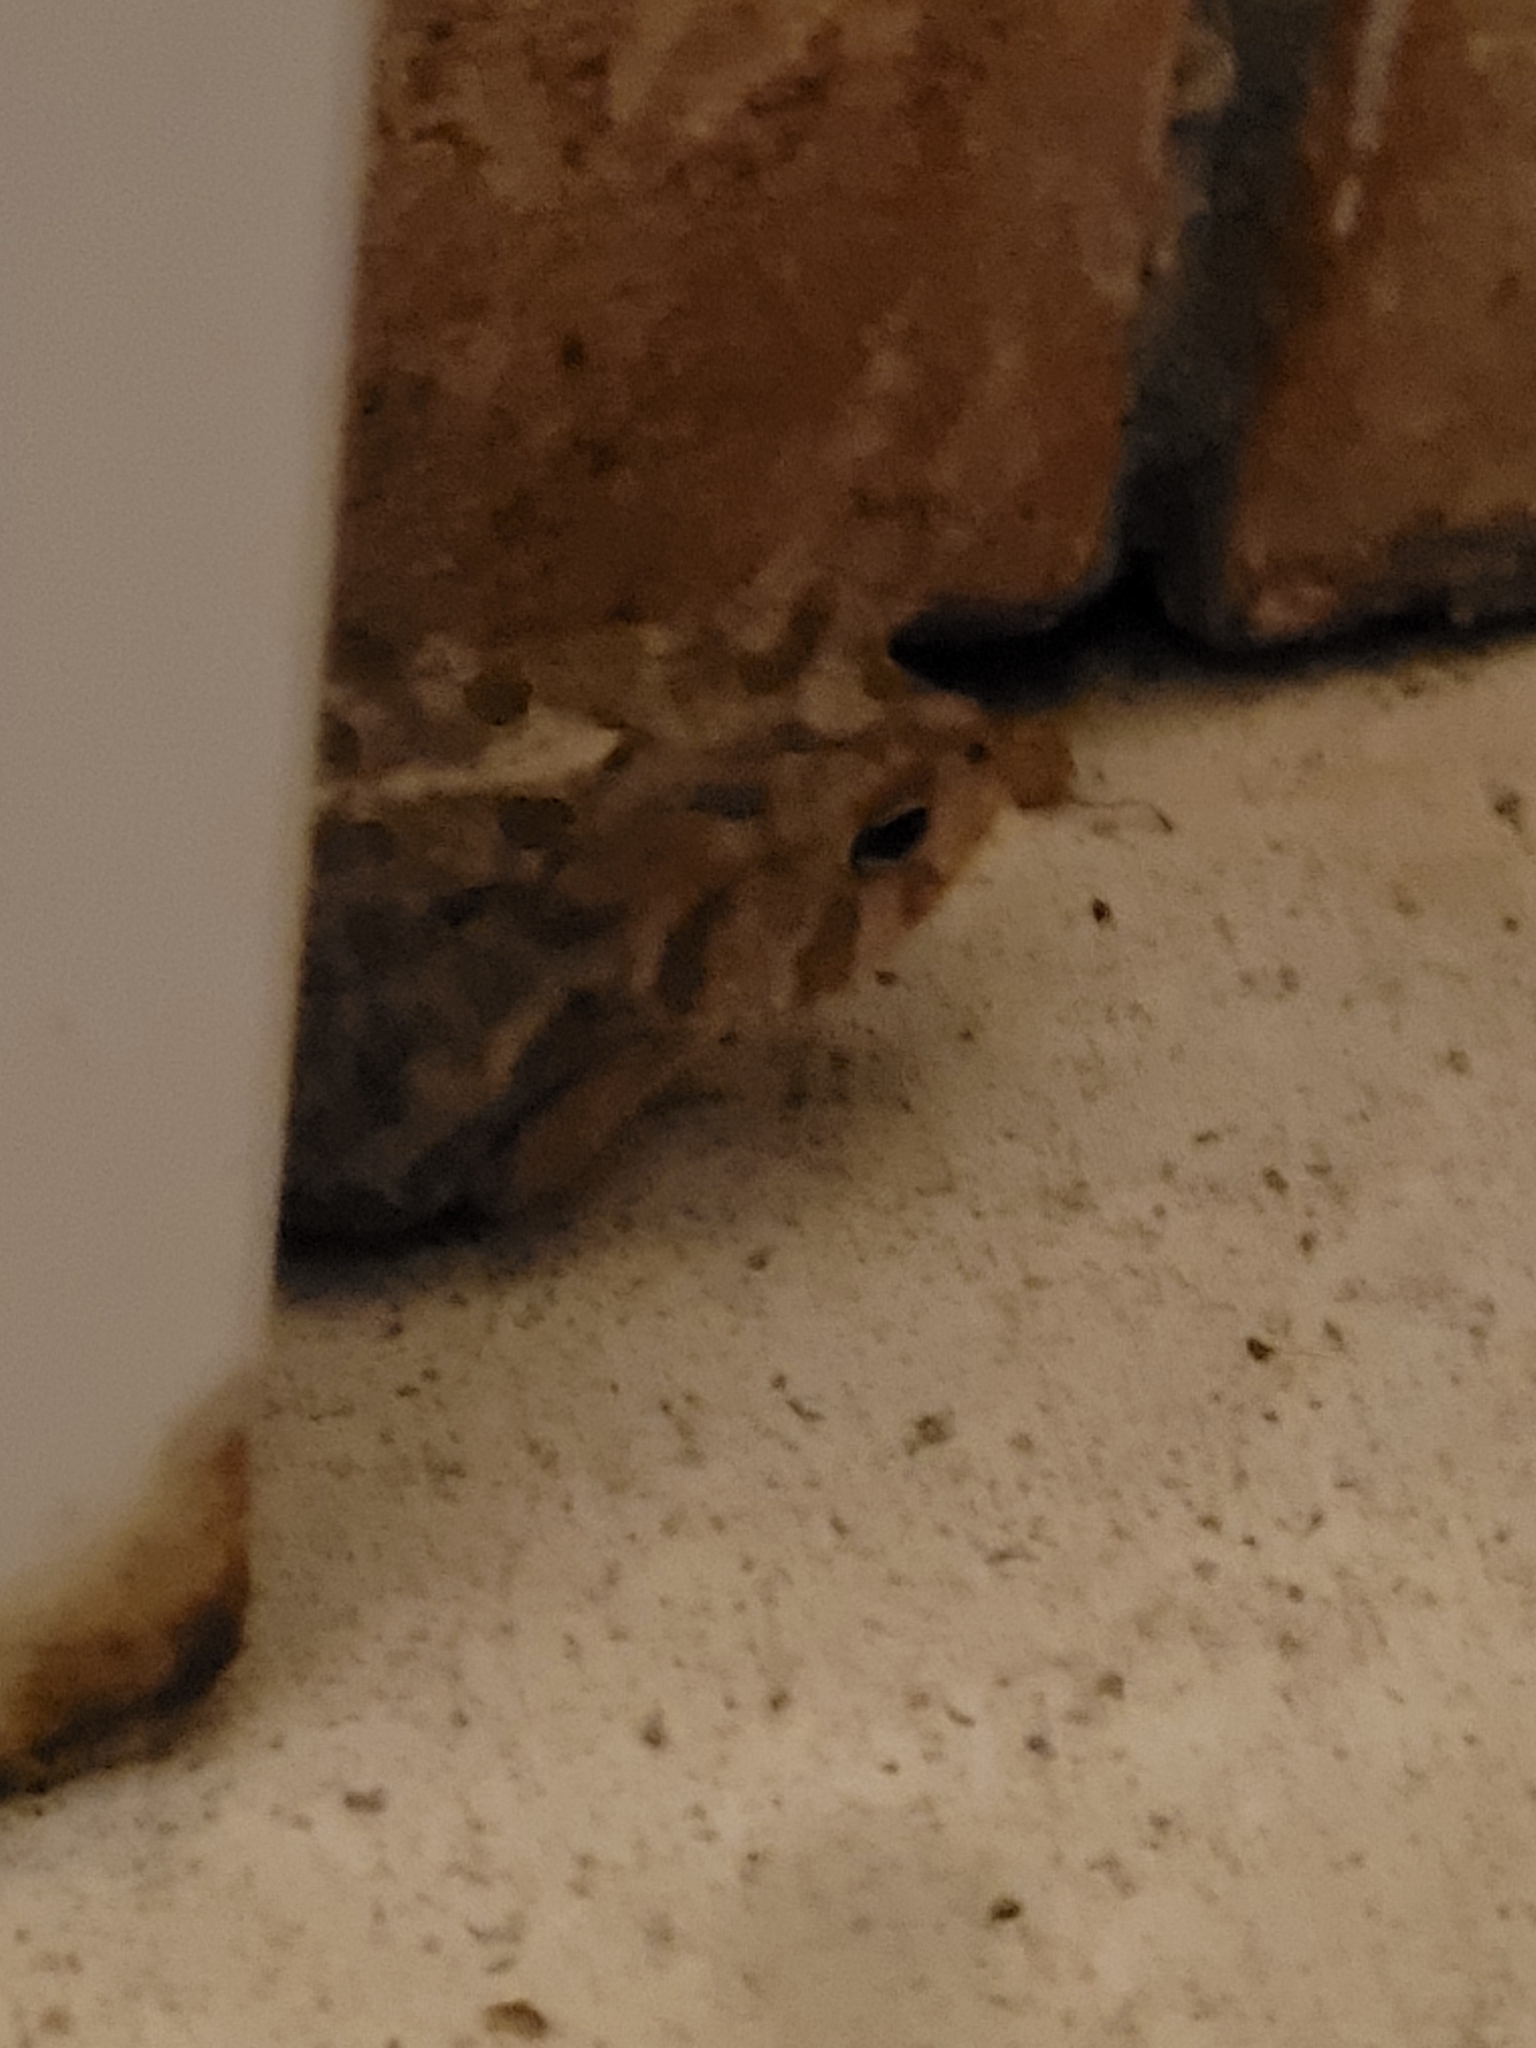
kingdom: Animalia
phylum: Chordata
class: Amphibia
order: Anura
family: Bufonidae
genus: Anaxyrus
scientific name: Anaxyrus terrestris
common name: Southern toad
